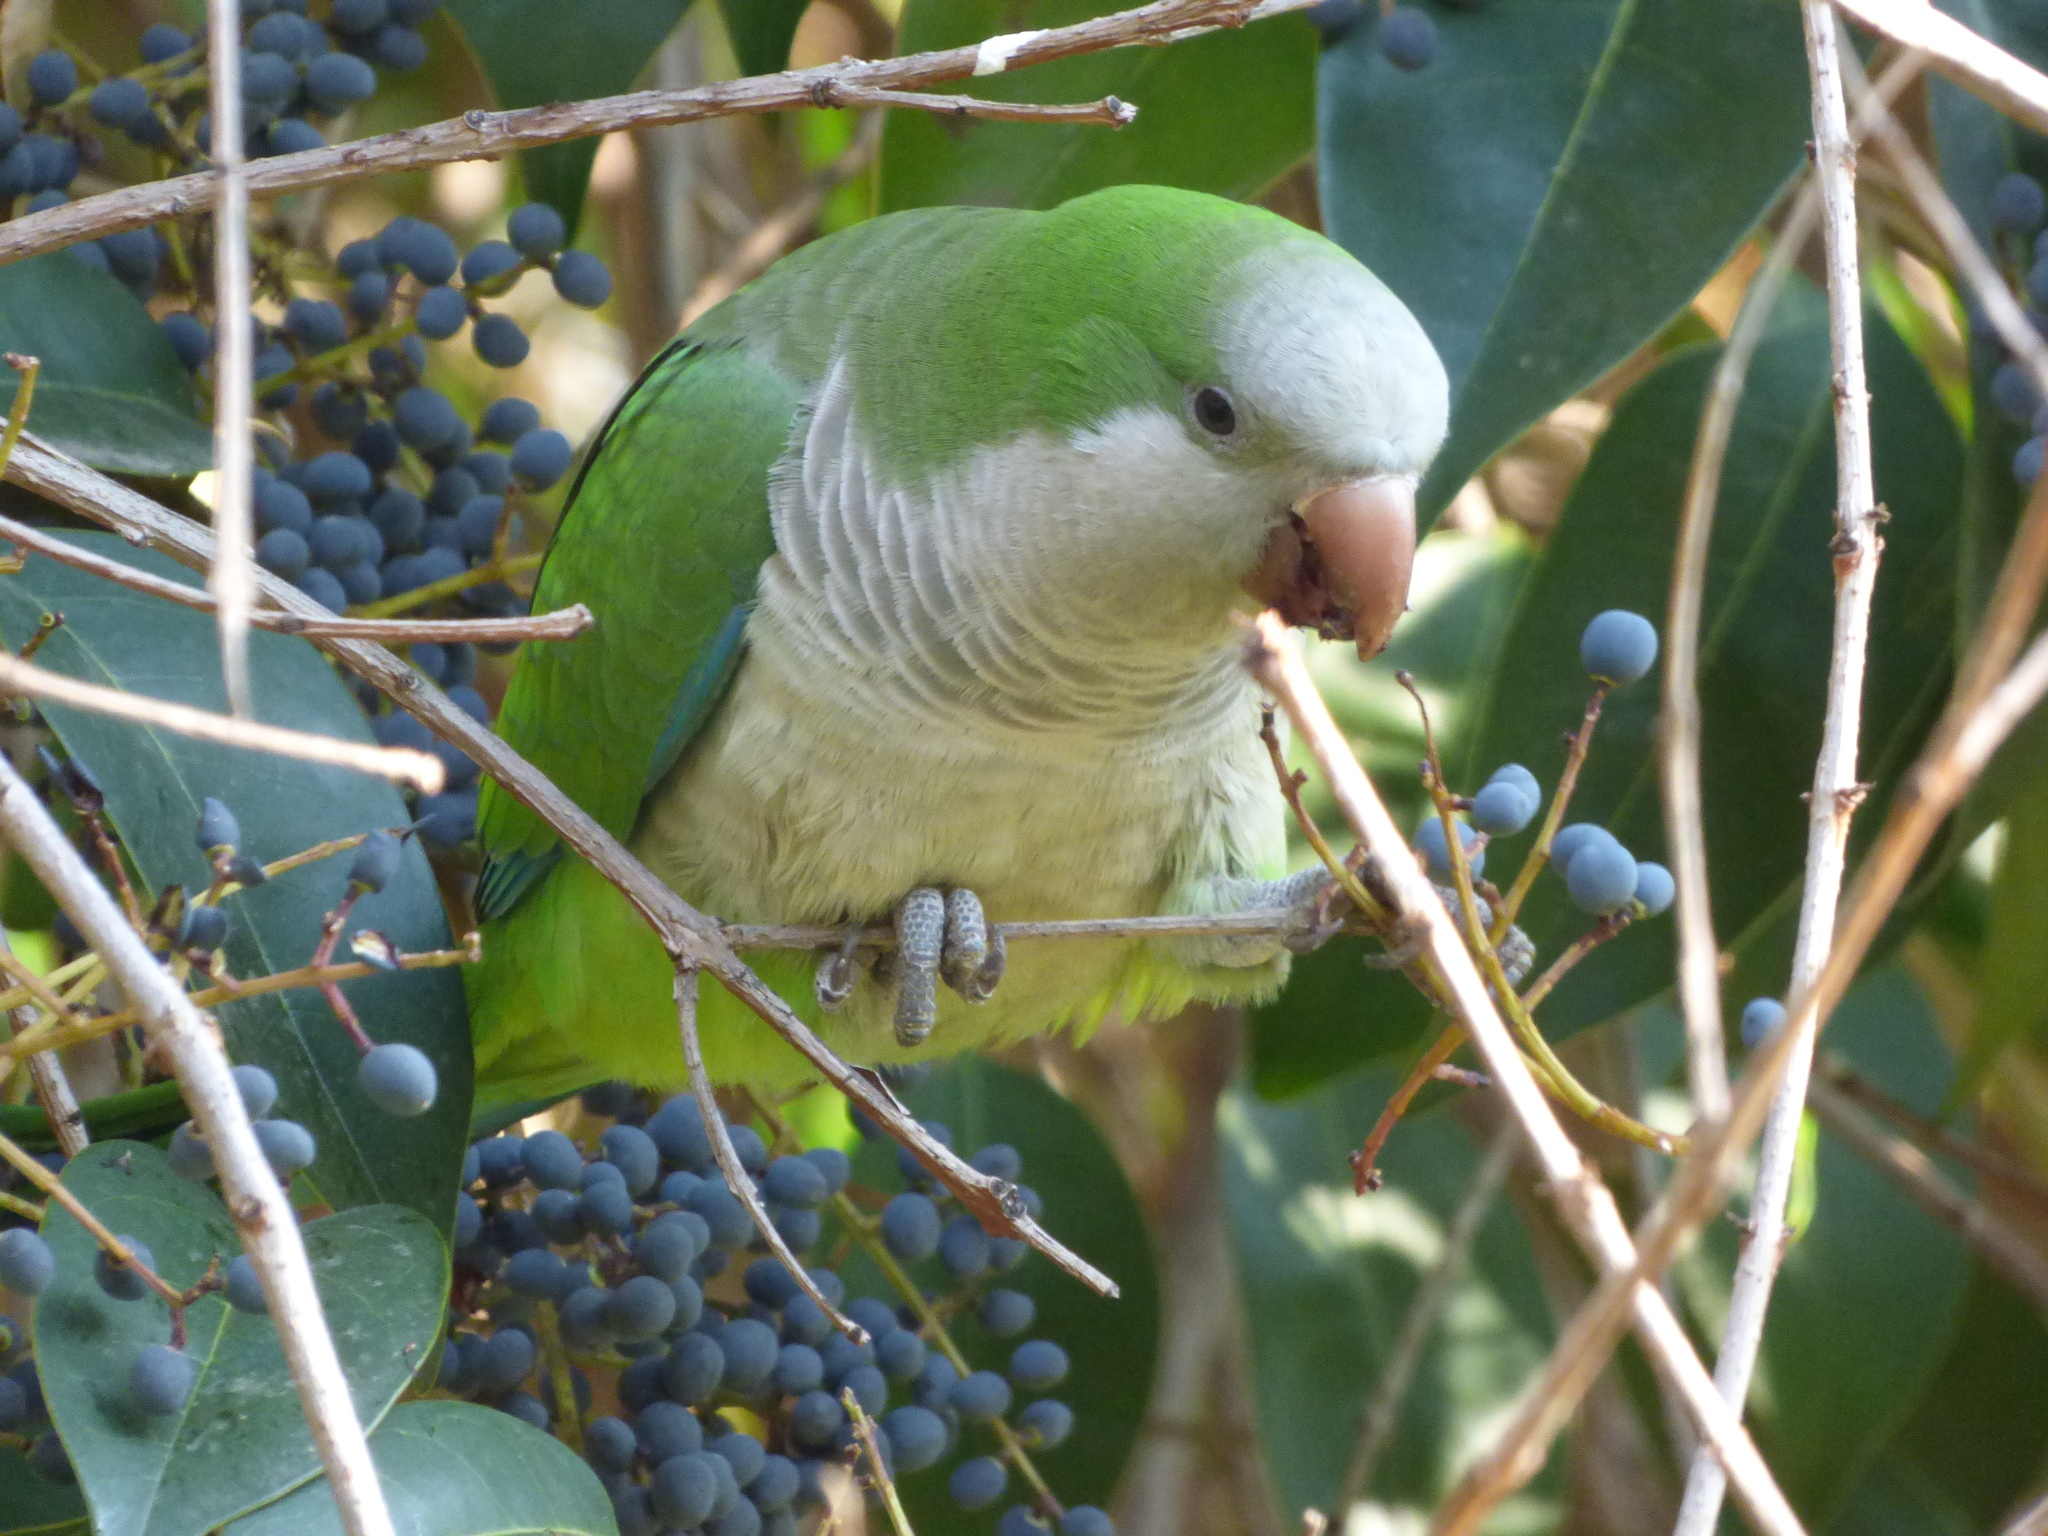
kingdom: Animalia
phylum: Chordata
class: Aves
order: Psittaciformes
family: Psittacidae
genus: Myiopsitta
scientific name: Myiopsitta monachus
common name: Monk parakeet
